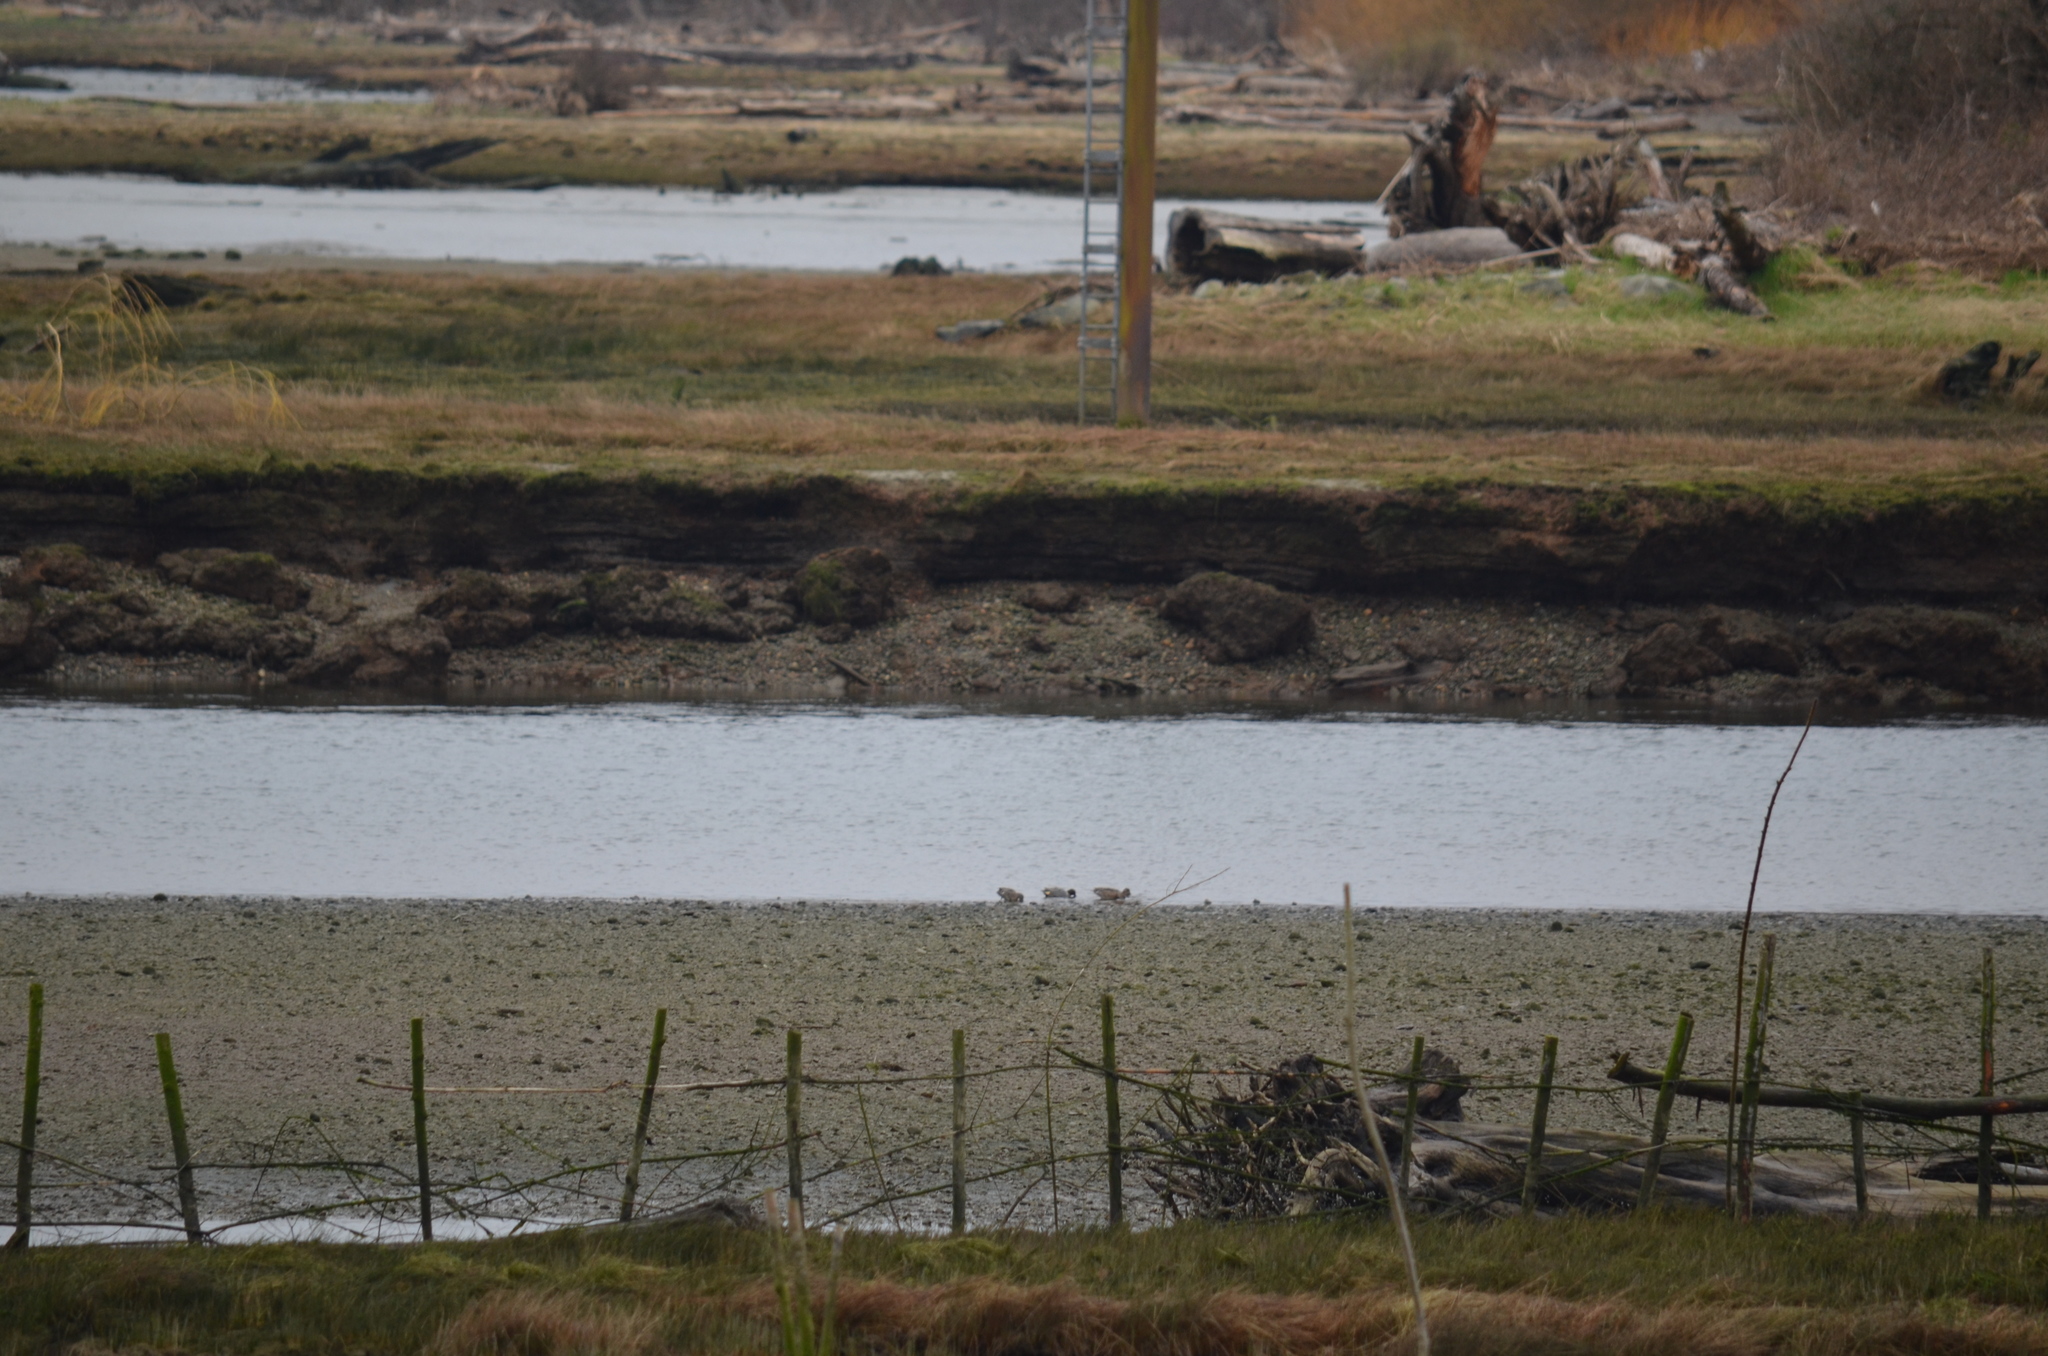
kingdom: Animalia
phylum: Chordata
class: Aves
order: Anseriformes
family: Anatidae
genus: Anas
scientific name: Anas crecca
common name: Eurasian teal
